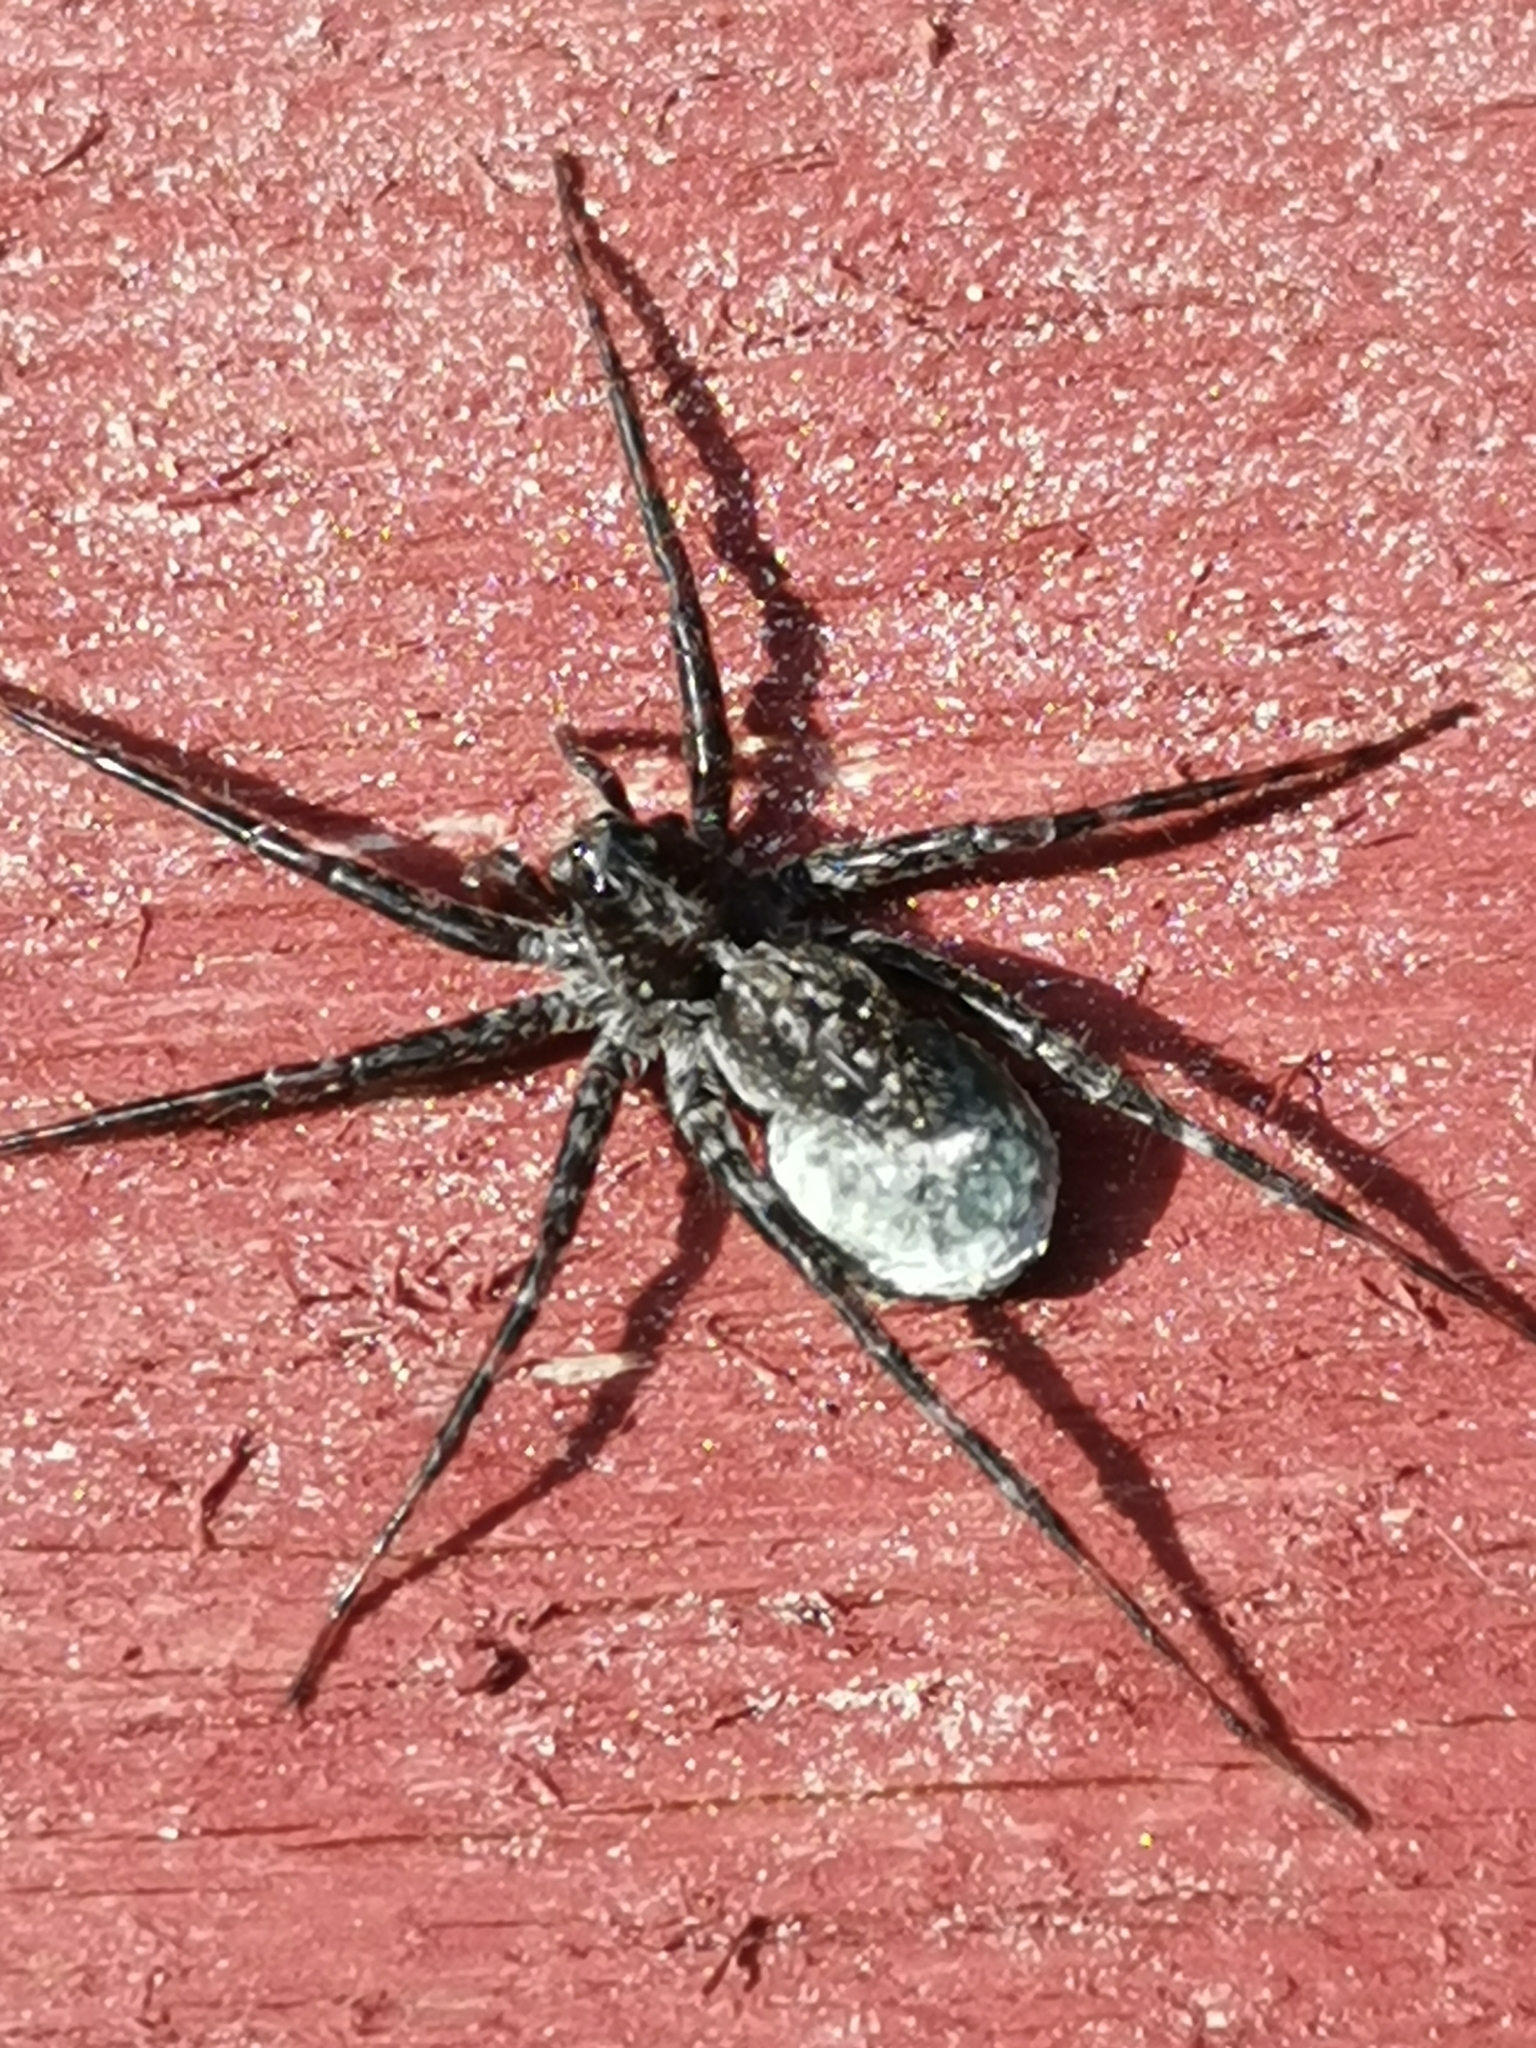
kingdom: Animalia
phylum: Arthropoda
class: Arachnida
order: Araneae
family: Lycosidae
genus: Acantholycosa
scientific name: Acantholycosa lignaria
